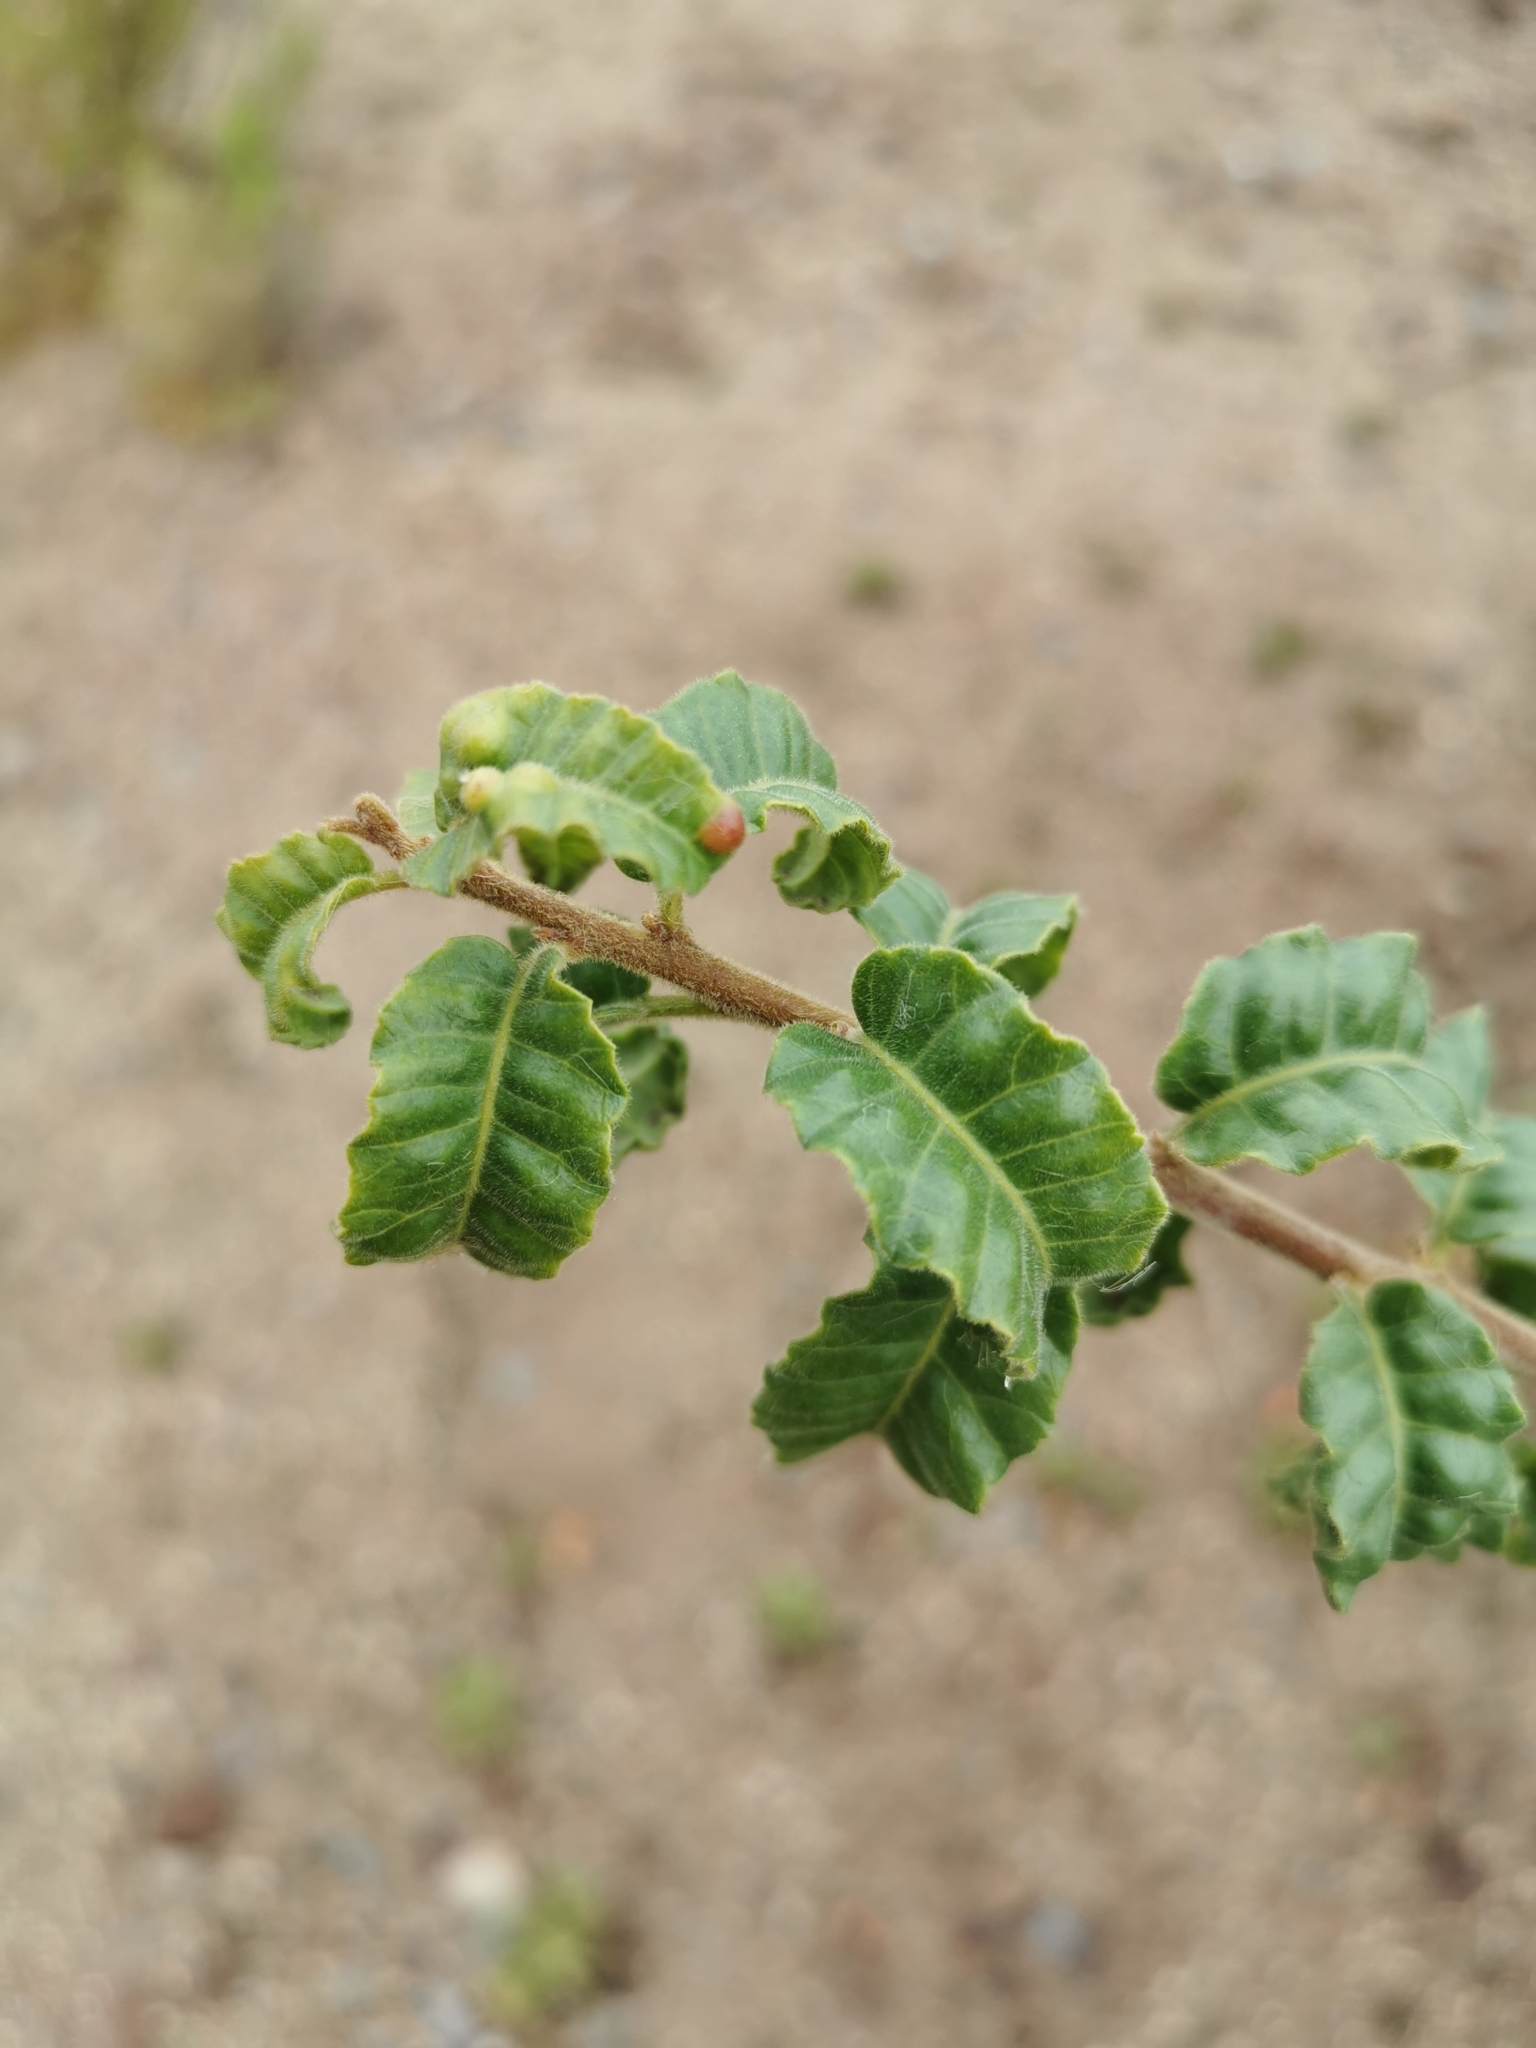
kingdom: Plantae
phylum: Tracheophyta
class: Magnoliopsida
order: Sapindales
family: Anacardiaceae
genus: Schinus
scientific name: Schinus latifolia
